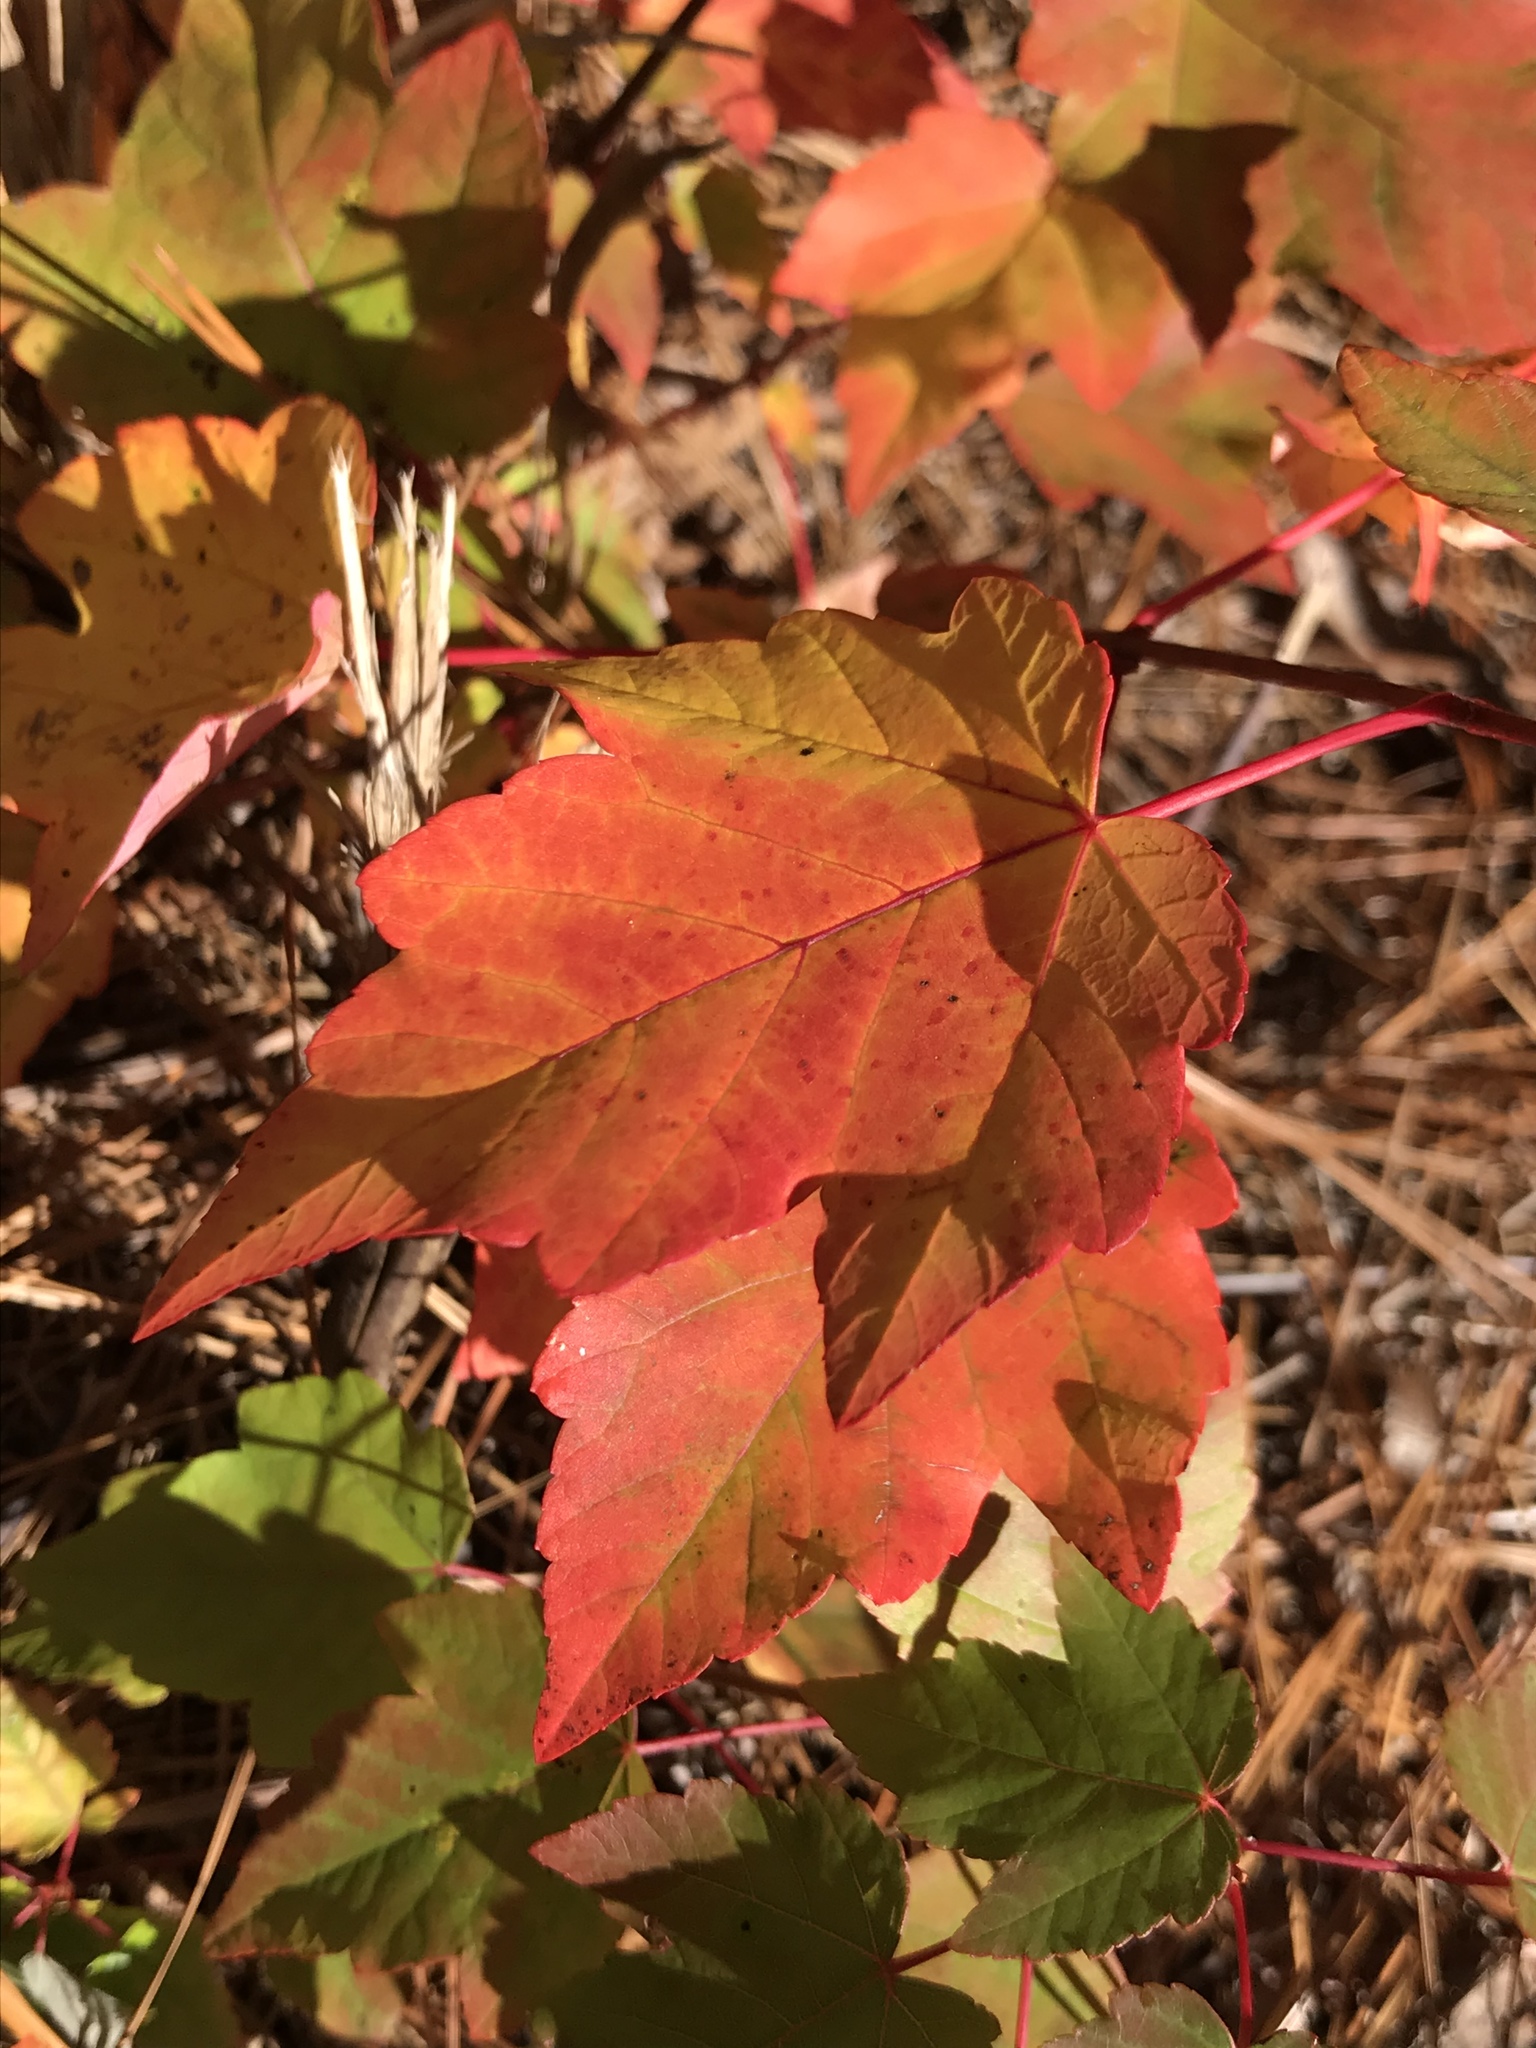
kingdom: Plantae
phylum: Tracheophyta
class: Magnoliopsida
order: Sapindales
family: Sapindaceae
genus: Acer
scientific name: Acer rubrum
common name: Red maple
